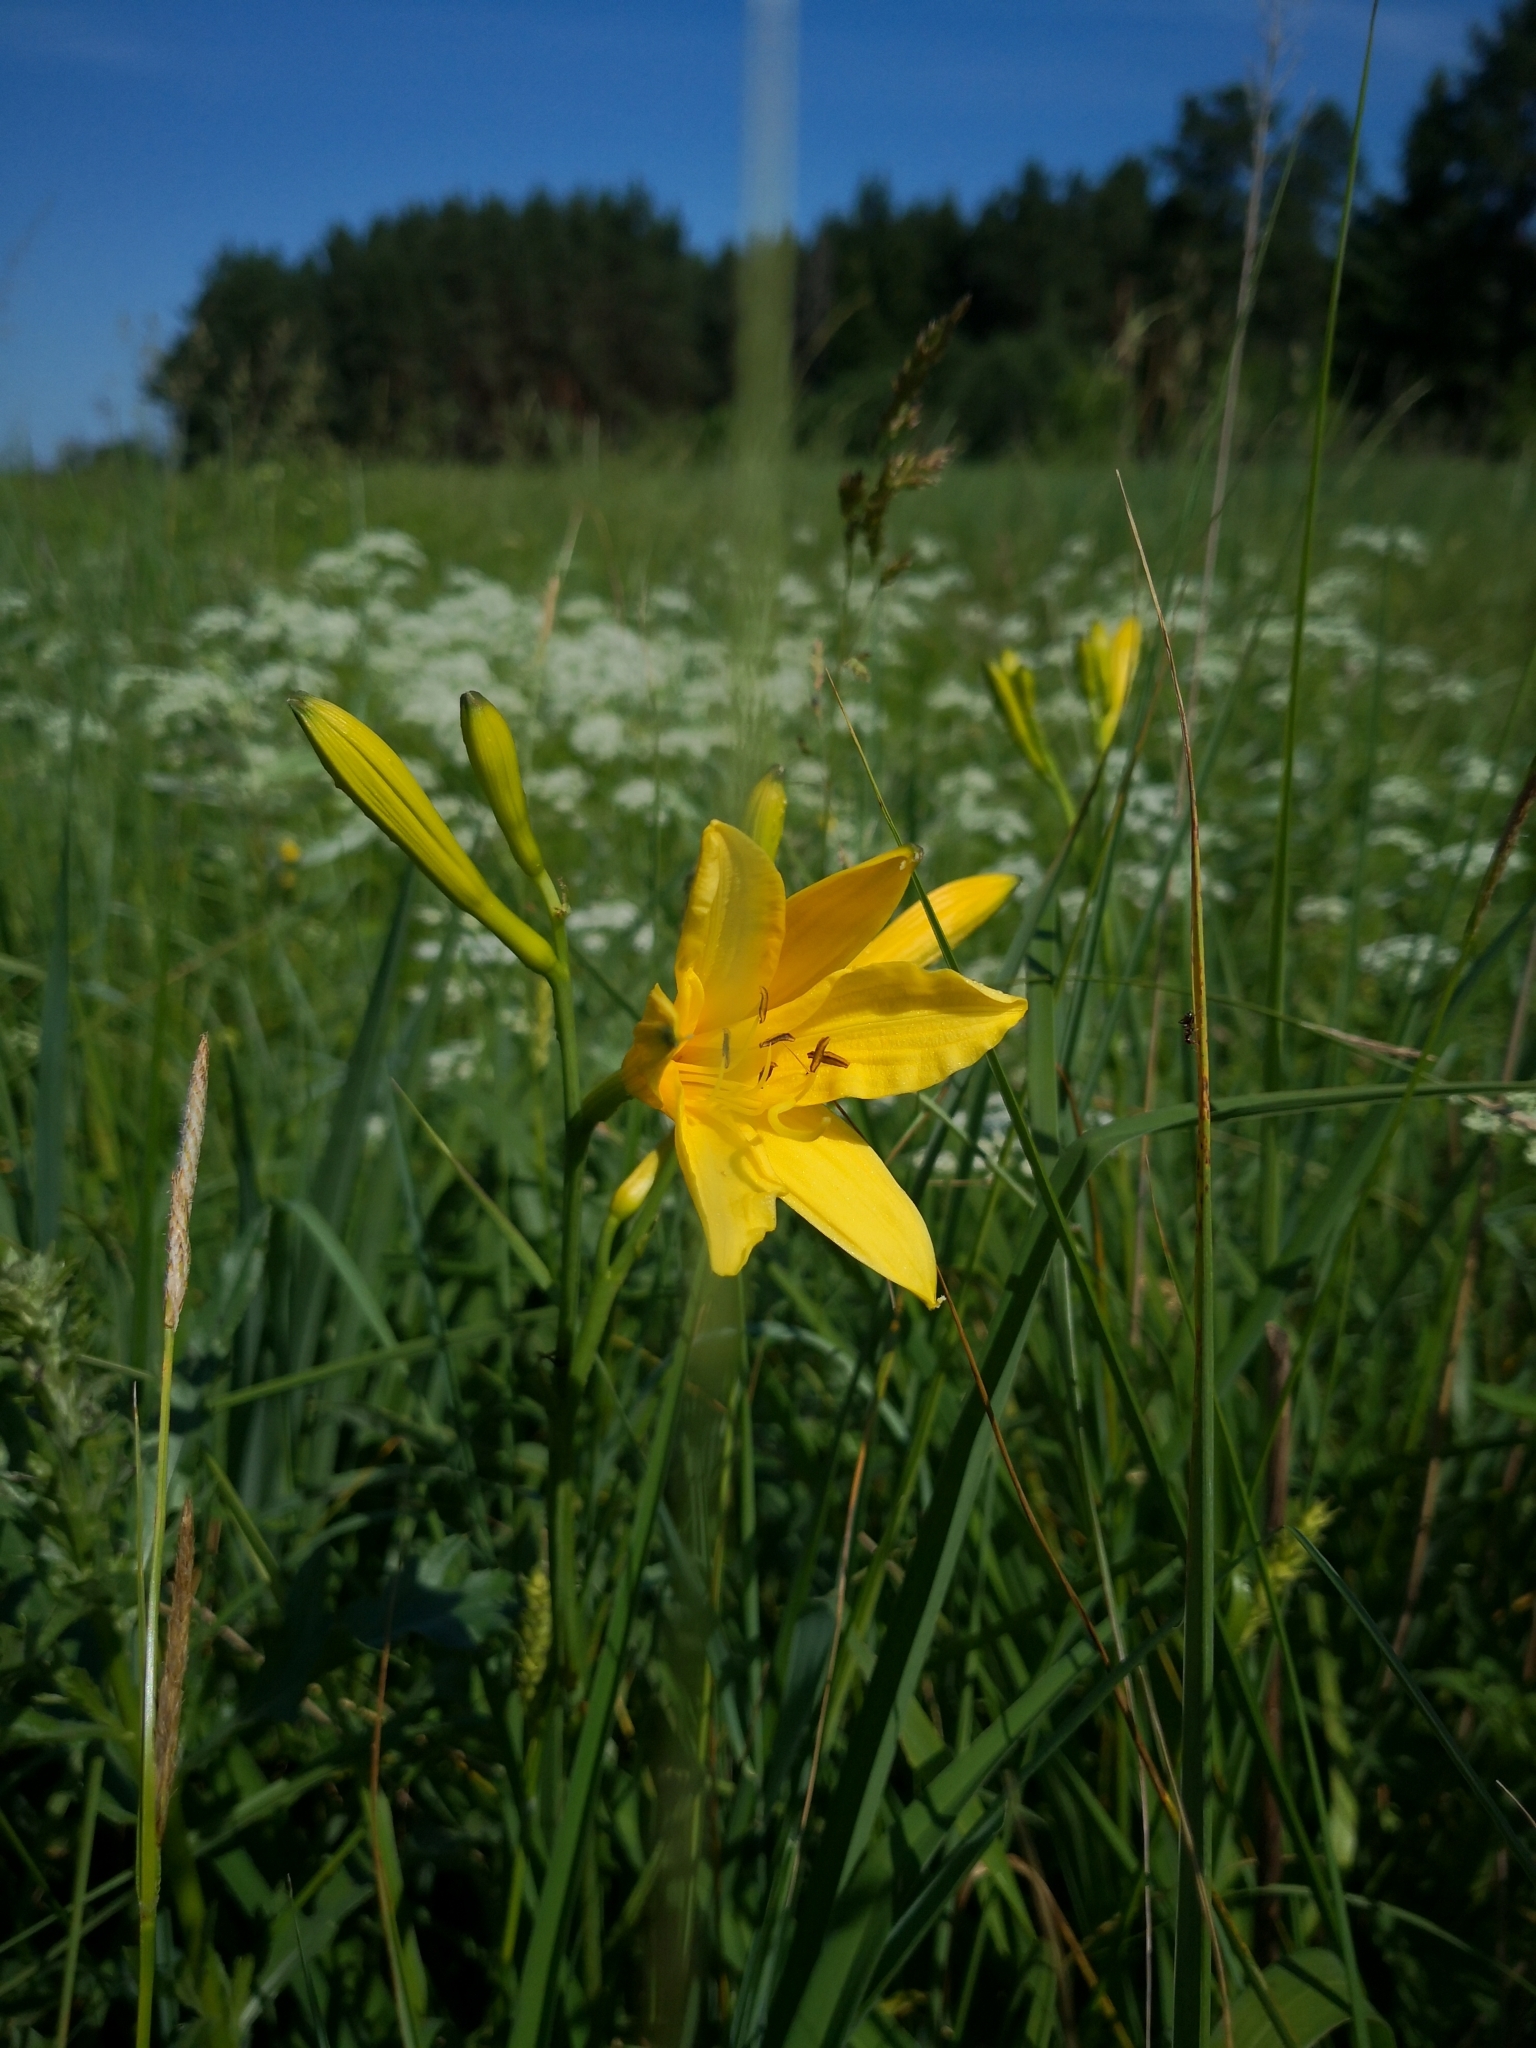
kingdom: Plantae
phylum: Tracheophyta
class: Liliopsida
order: Asparagales
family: Asphodelaceae
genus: Hemerocallis
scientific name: Hemerocallis minor
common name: Small daylily
